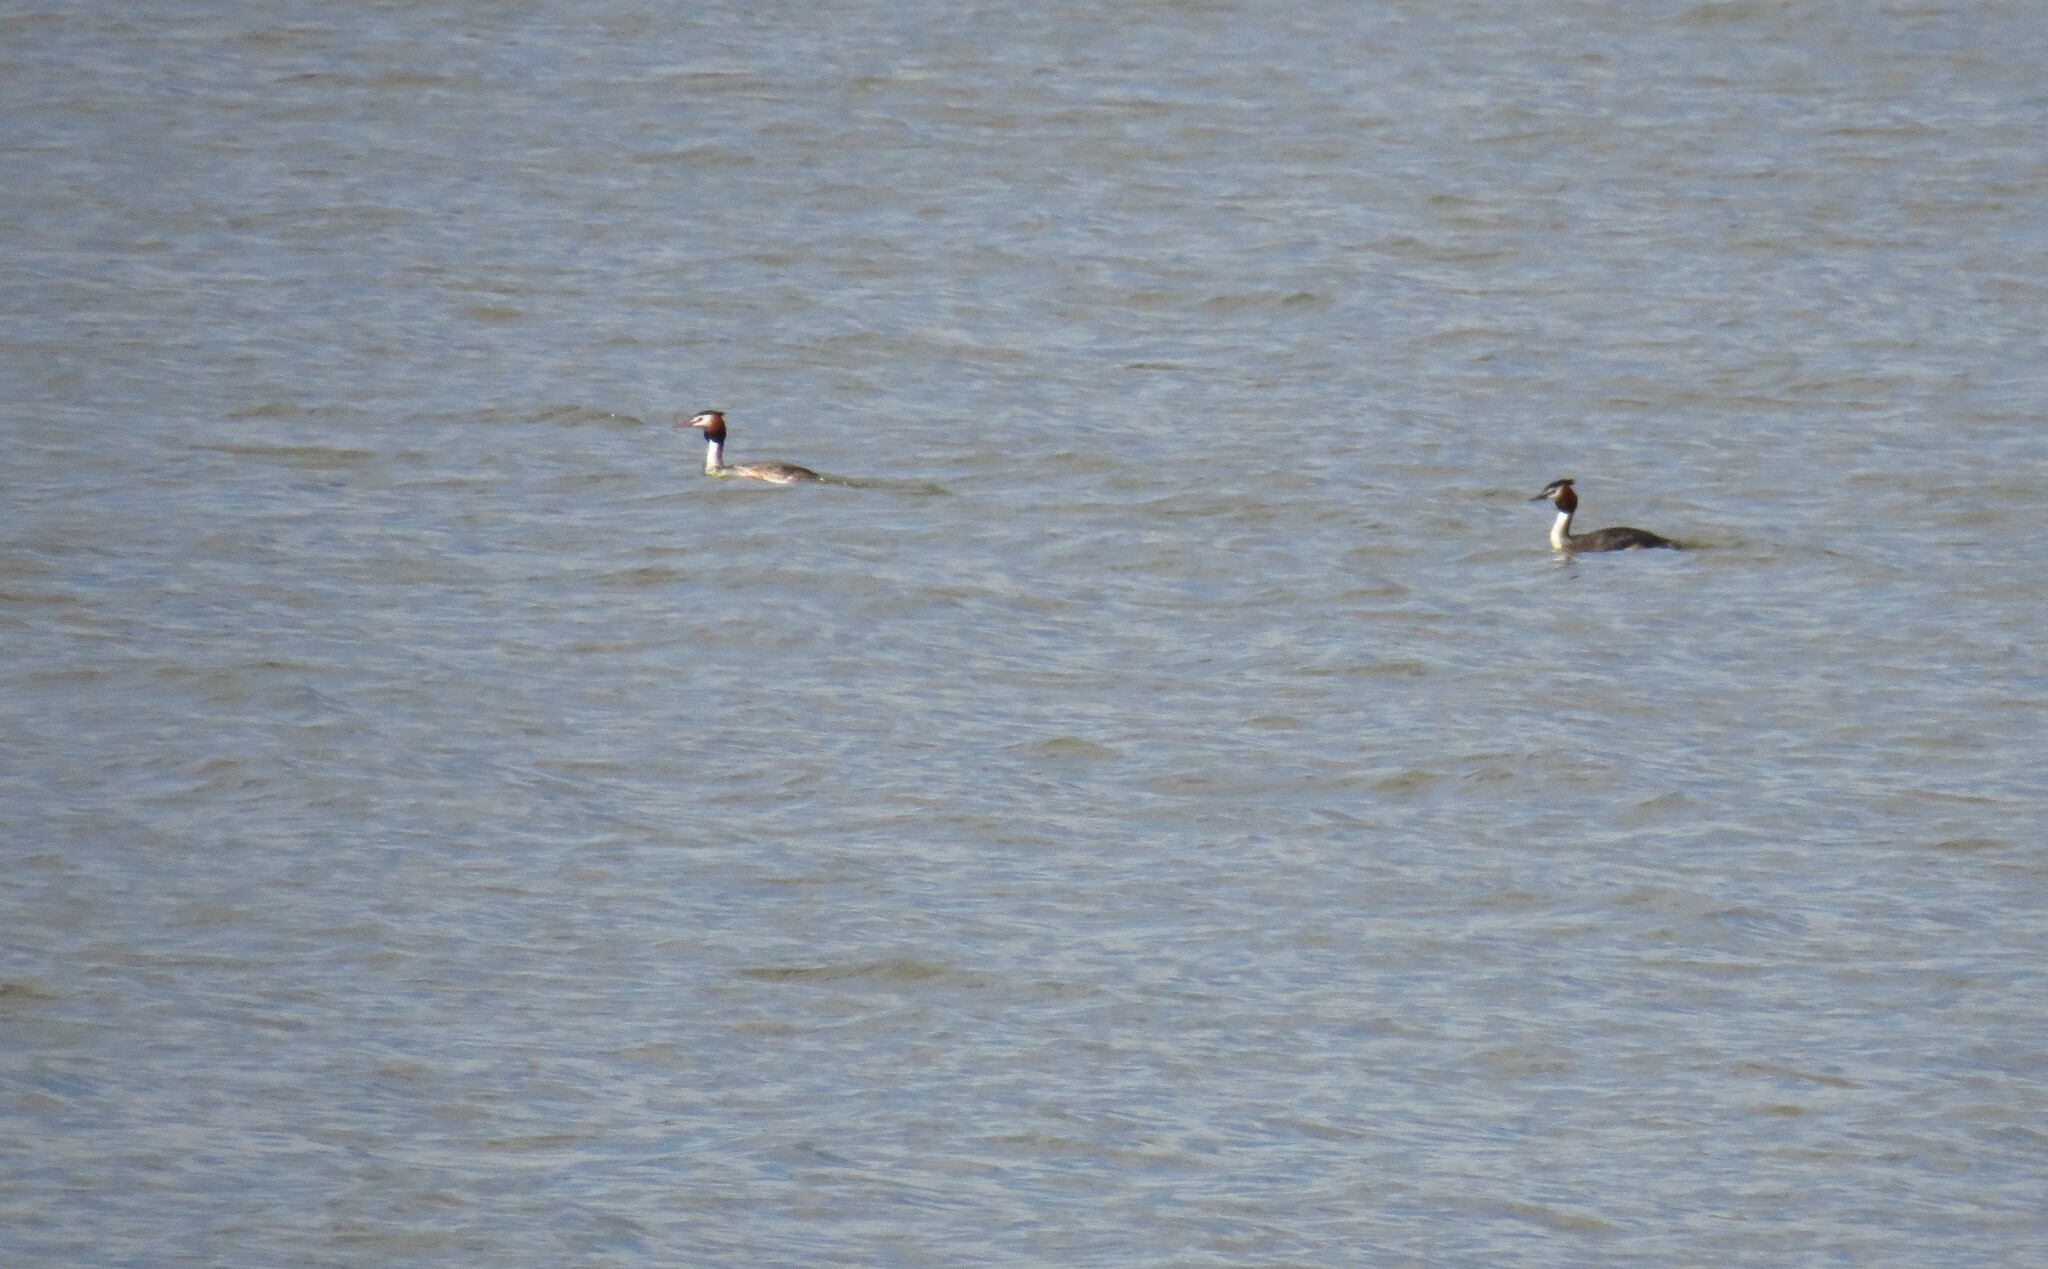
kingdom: Animalia
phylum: Chordata
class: Aves
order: Podicipediformes
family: Podicipedidae
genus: Podiceps
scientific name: Podiceps cristatus
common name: Great crested grebe
